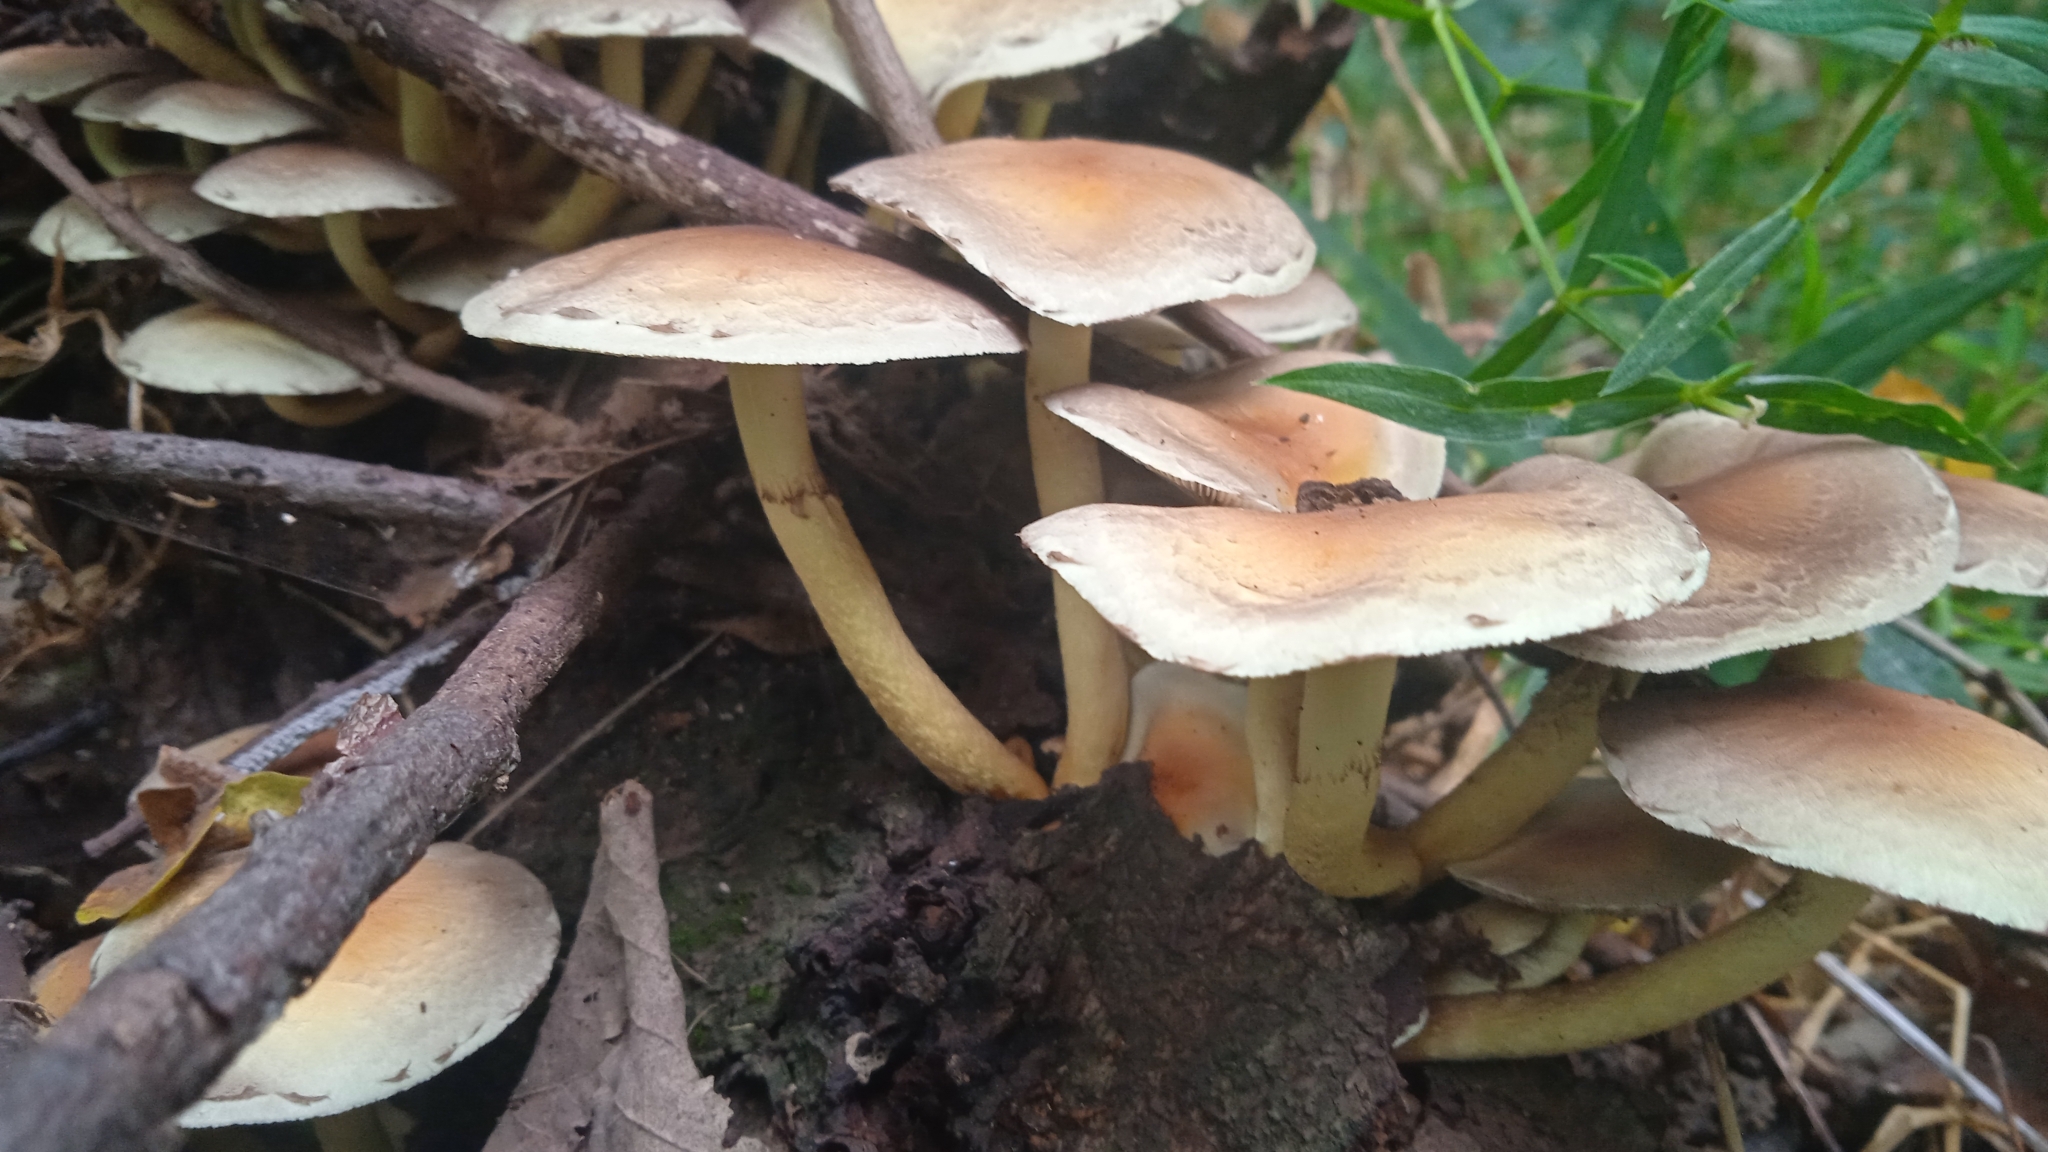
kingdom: Fungi
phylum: Basidiomycota
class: Agaricomycetes
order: Agaricales
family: Strophariaceae
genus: Hypholoma
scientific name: Hypholoma fasciculare
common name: Sulphur tuft
